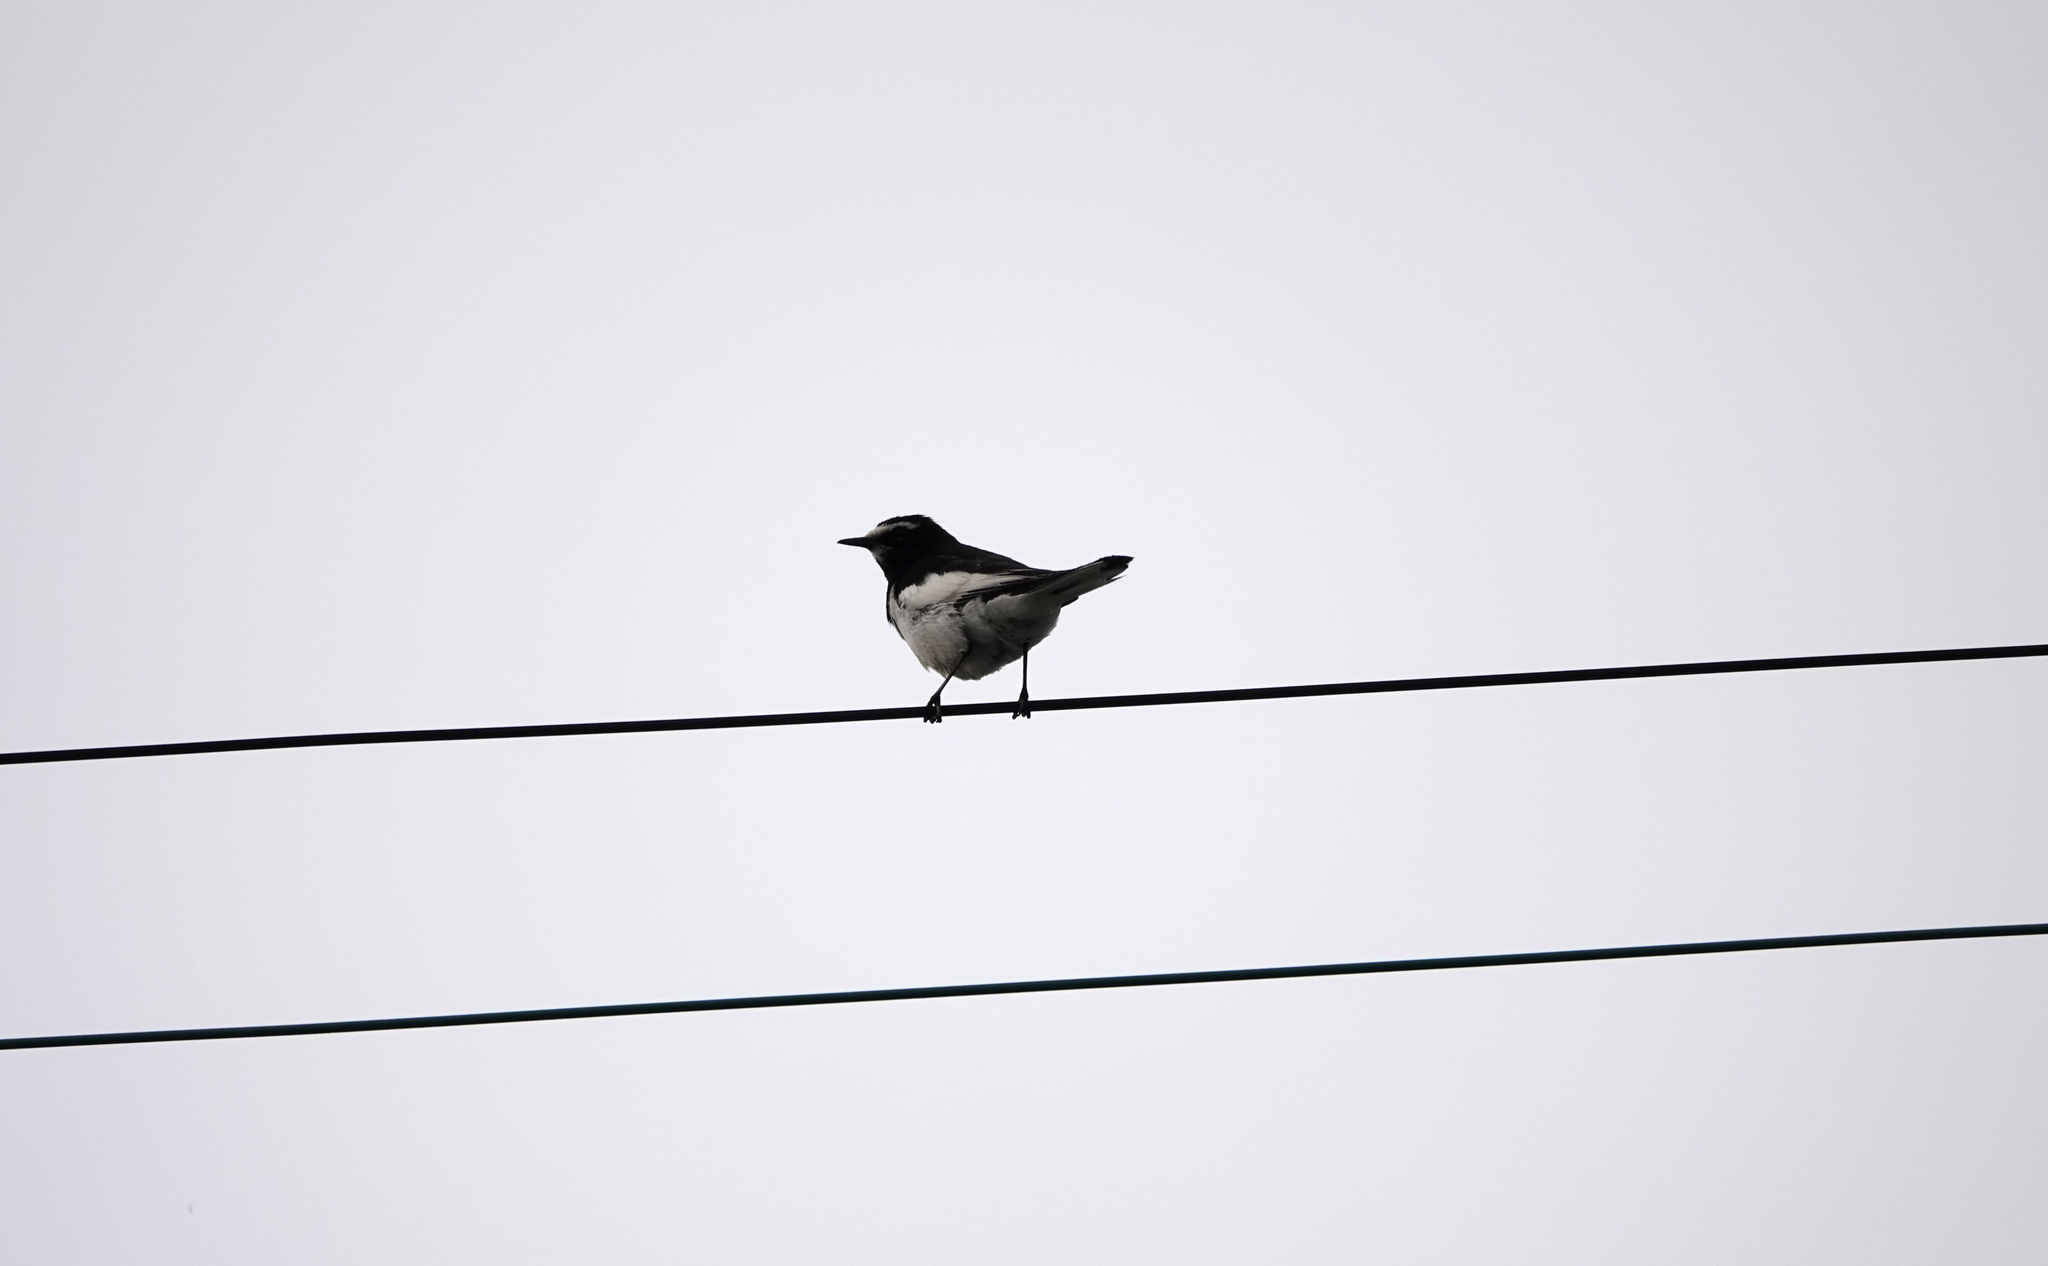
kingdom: Animalia
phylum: Chordata
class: Aves
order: Passeriformes
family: Motacillidae
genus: Motacilla
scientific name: Motacilla grandis
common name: Japanese wagtail
